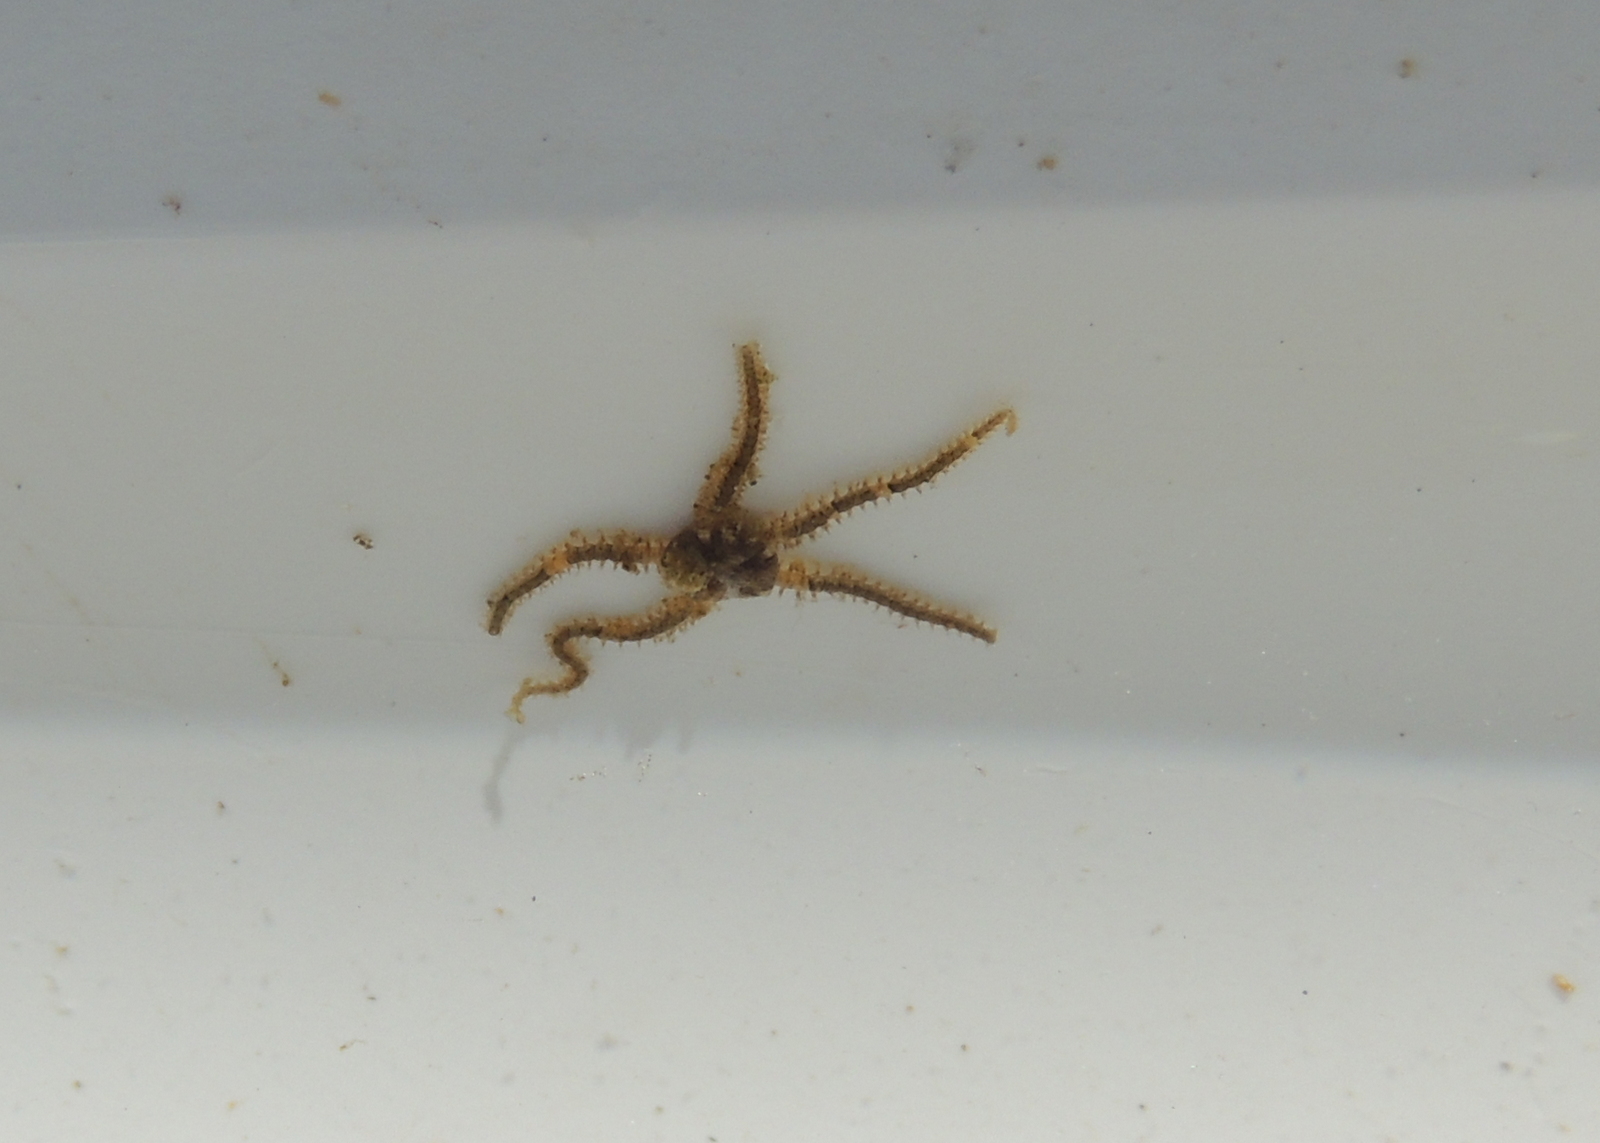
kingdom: Animalia
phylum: Echinodermata
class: Ophiuroidea
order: Amphilepidida
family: Amphiuridae
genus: Amphipholis
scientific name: Amphipholis squamata
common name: Brooding snake star
